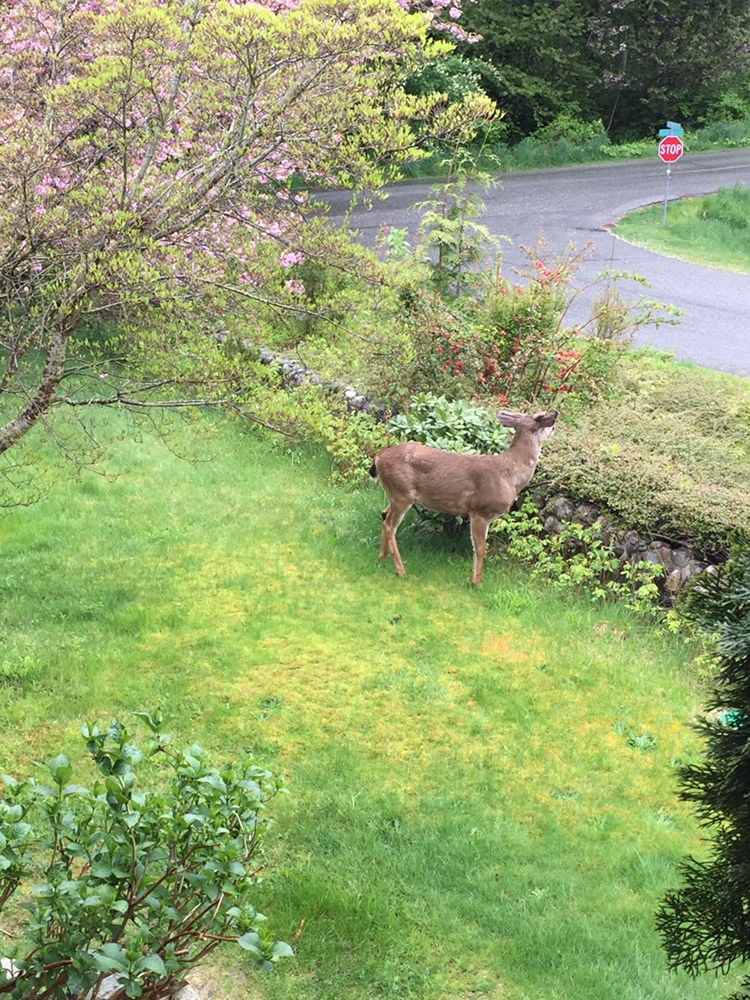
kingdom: Animalia
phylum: Chordata
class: Mammalia
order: Artiodactyla
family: Cervidae
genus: Odocoileus
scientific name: Odocoileus hemionus
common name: Mule deer
